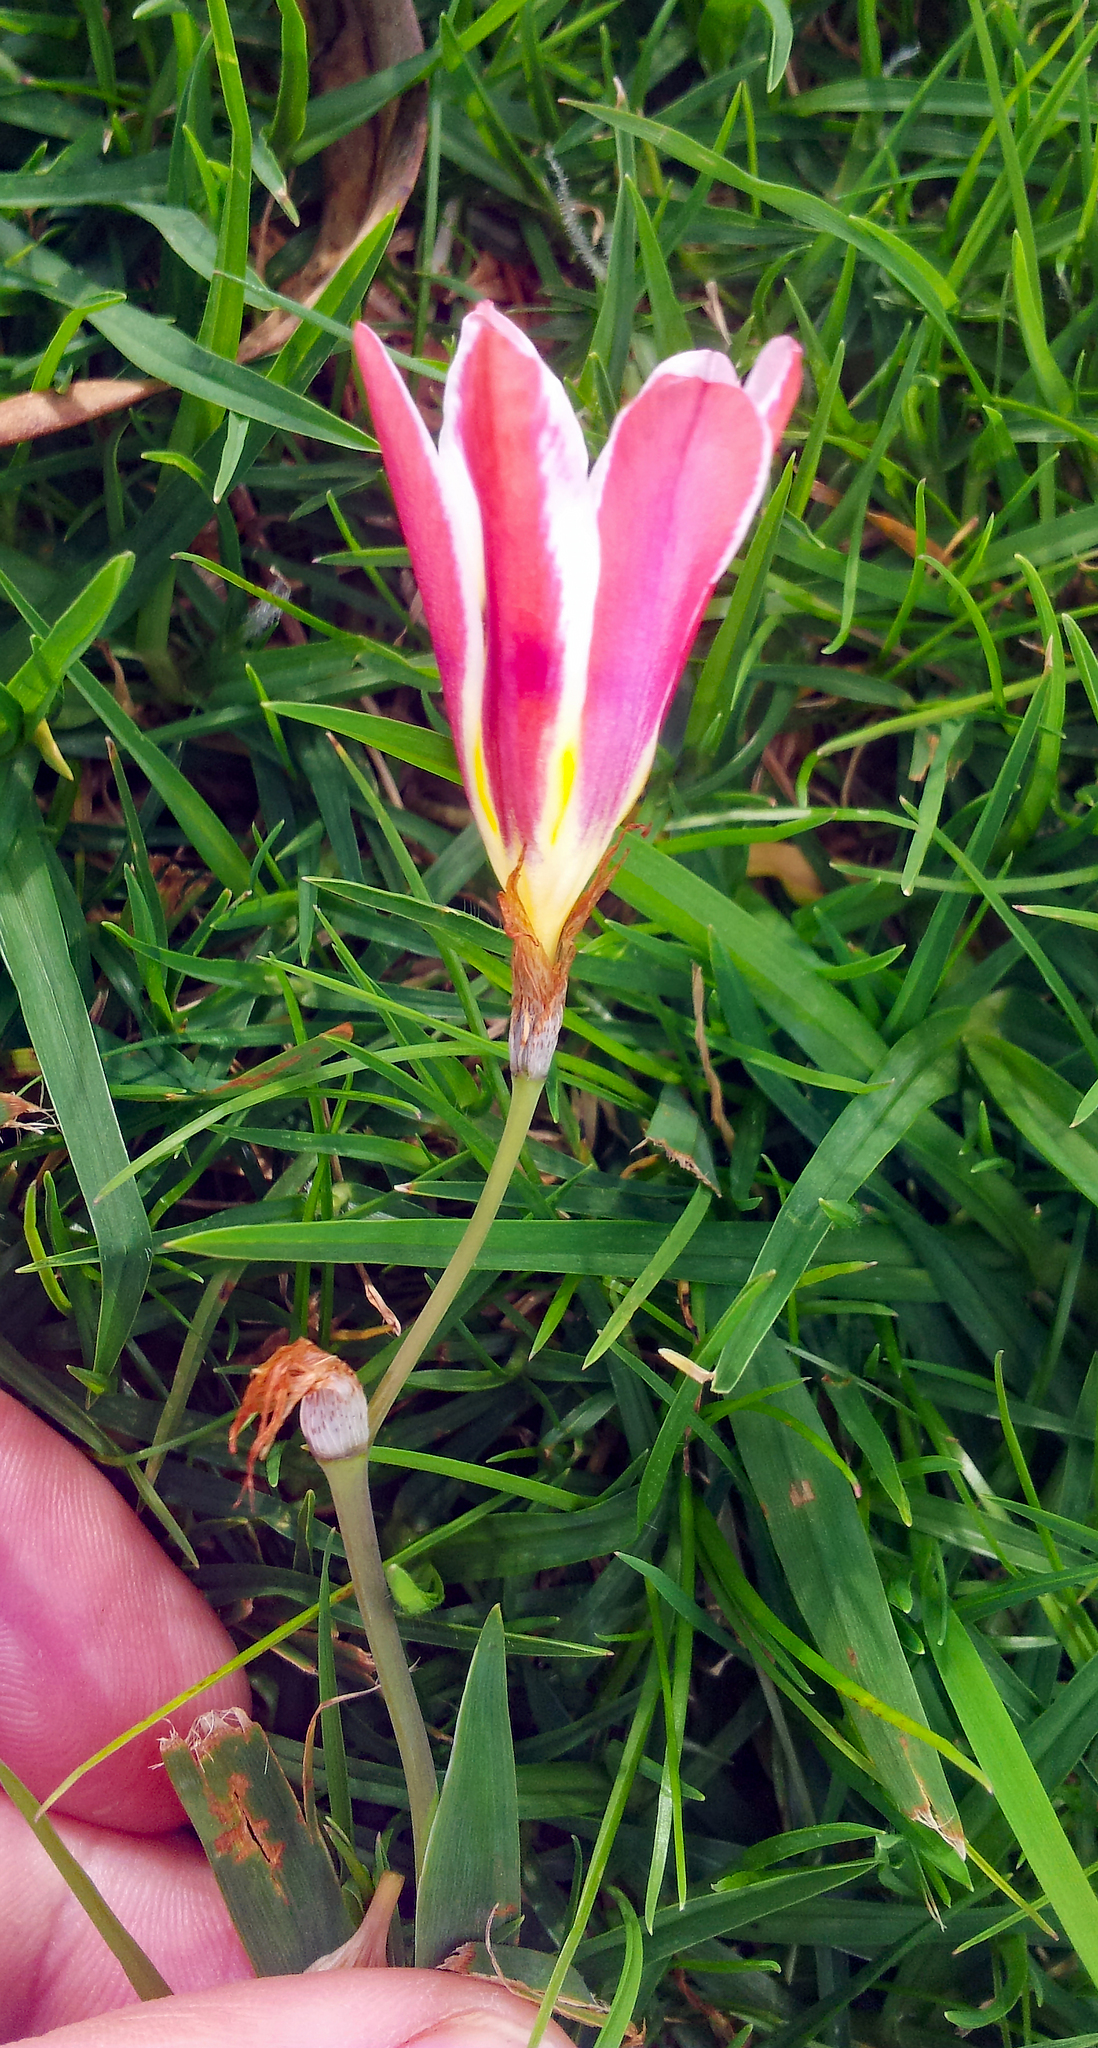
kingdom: Plantae
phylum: Tracheophyta
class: Liliopsida
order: Asparagales
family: Iridaceae
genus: Sparaxis
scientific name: Sparaxis grandiflora
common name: Plain harlequin-flower
